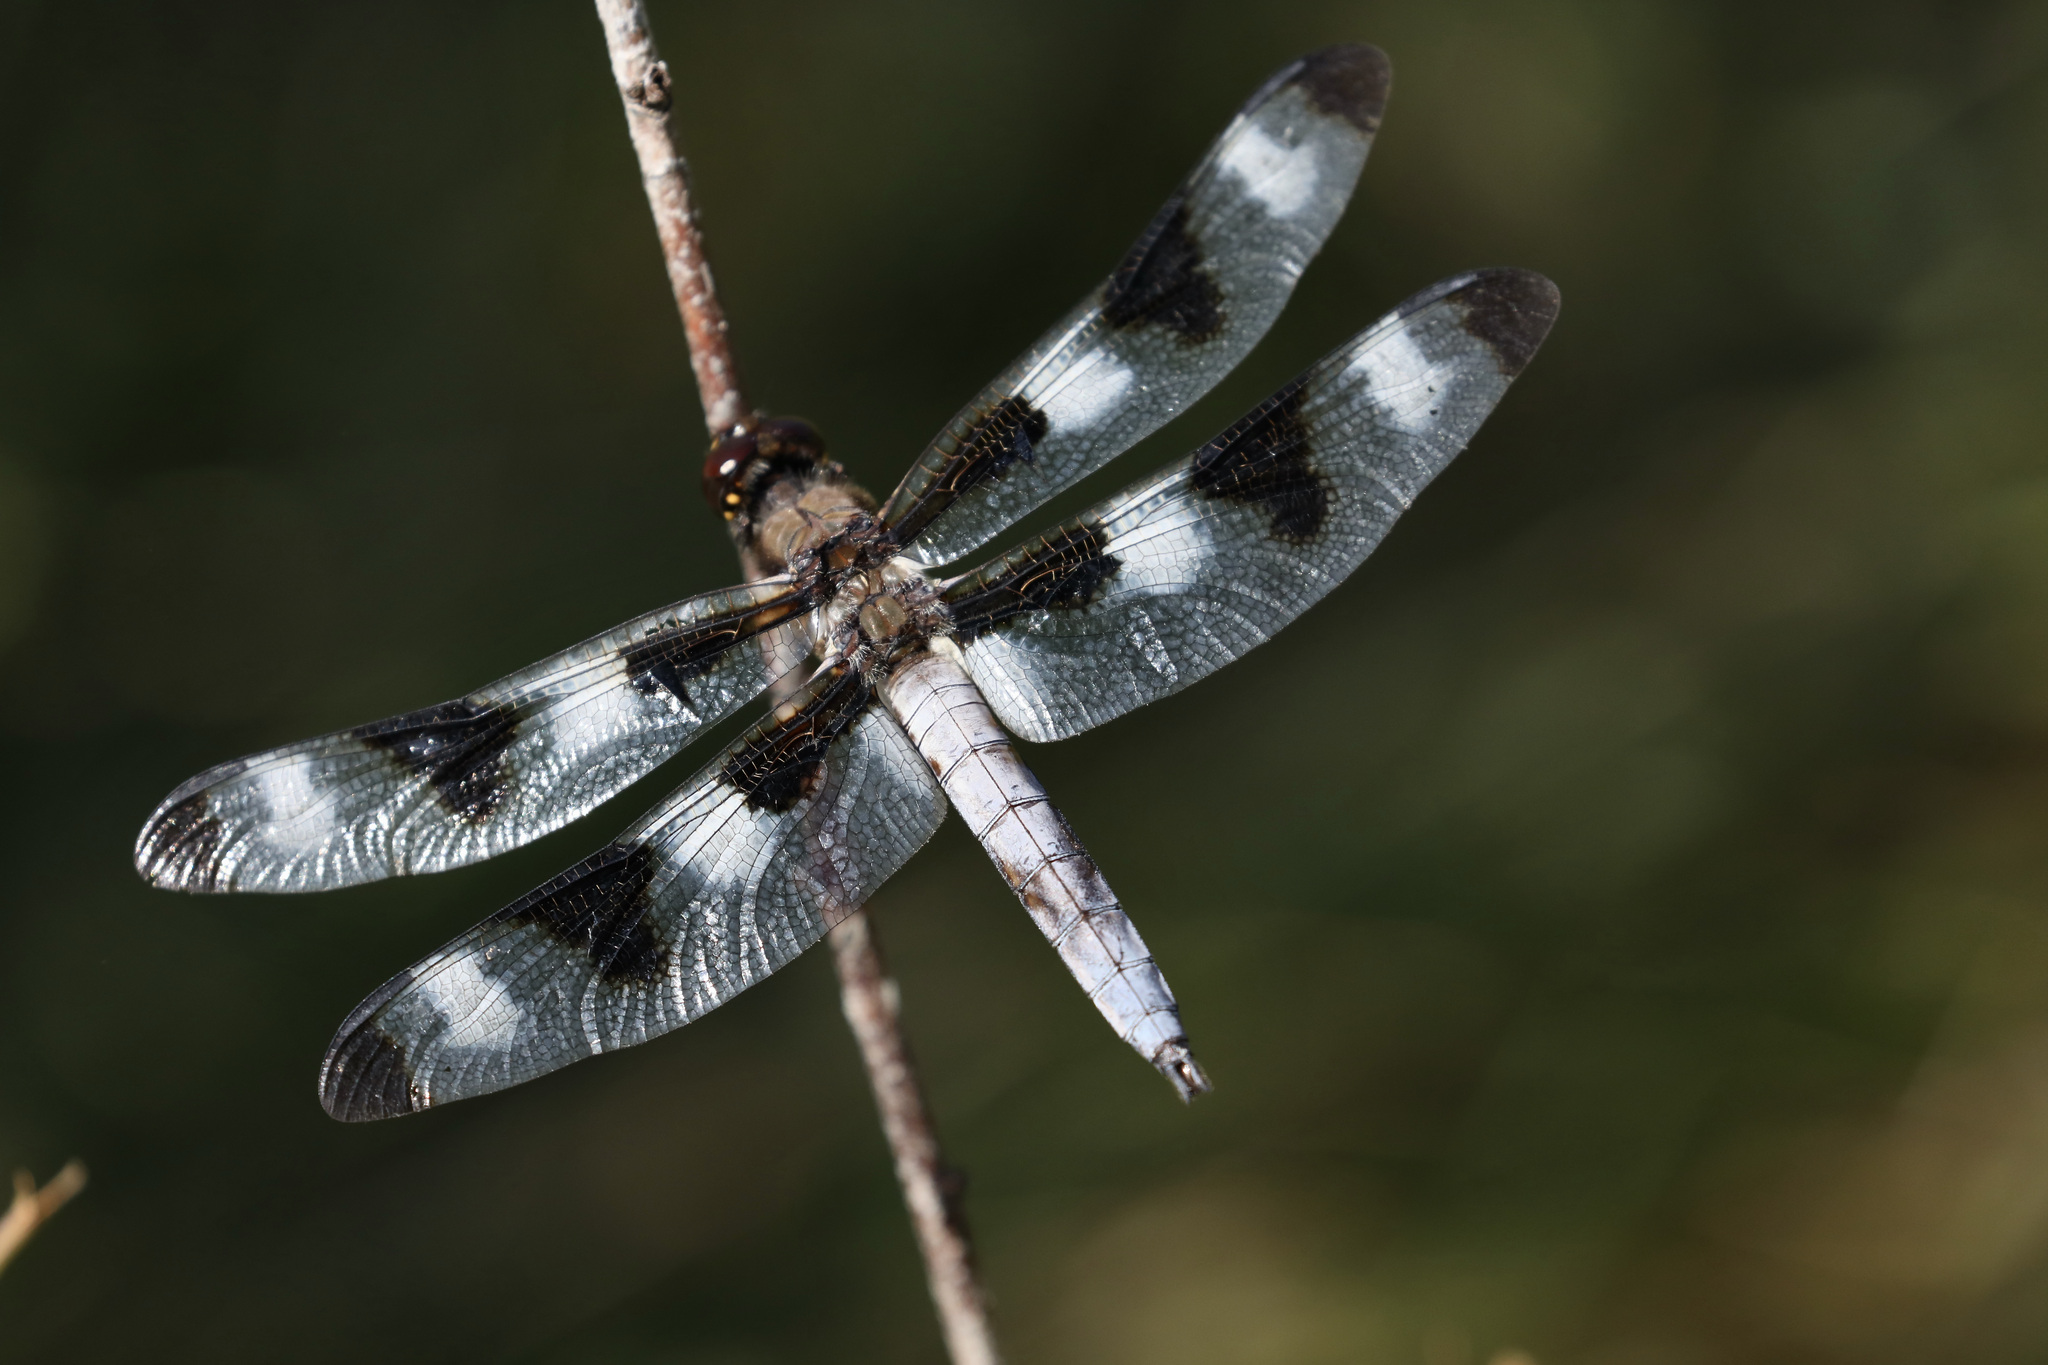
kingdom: Animalia
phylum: Arthropoda
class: Insecta
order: Odonata
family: Libellulidae
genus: Libellula
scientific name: Libellula pulchella
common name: Twelve-spotted skimmer
